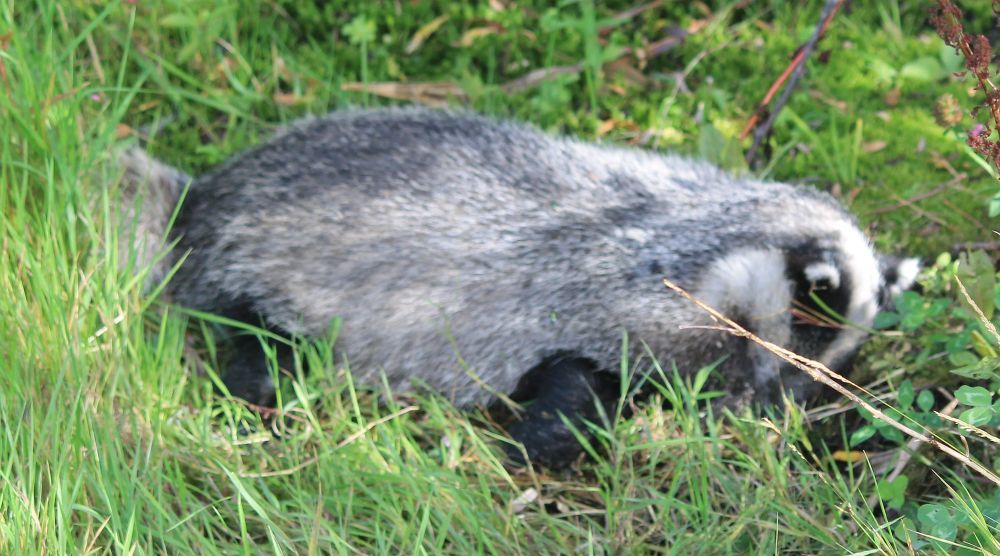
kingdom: Animalia
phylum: Chordata
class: Mammalia
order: Carnivora
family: Mustelidae
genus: Meles
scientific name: Meles meles
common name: Eurasian badger
